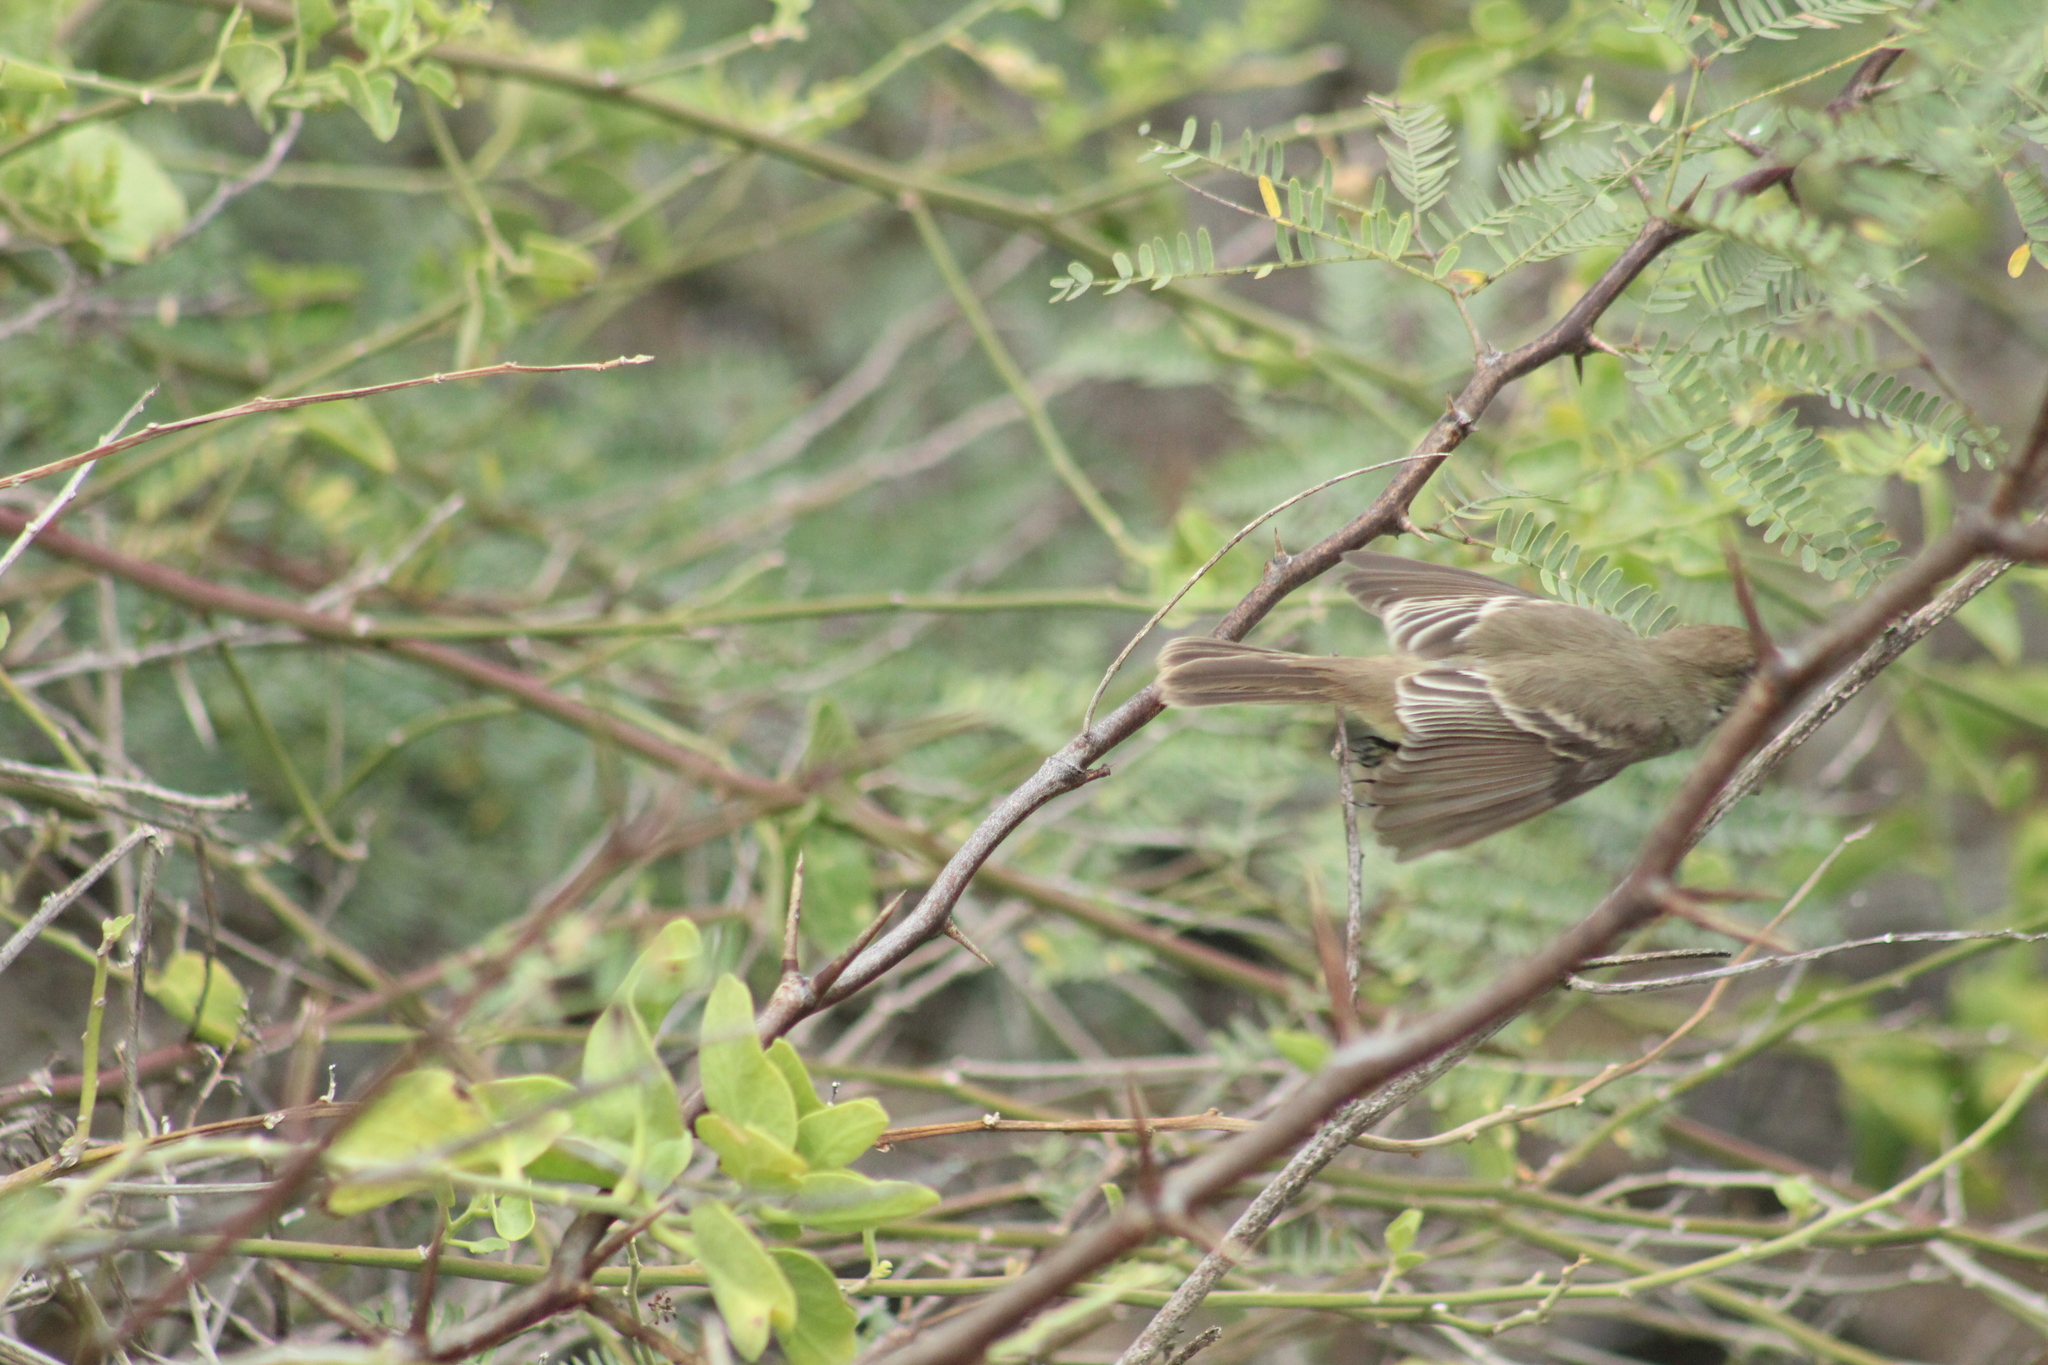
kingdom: Animalia
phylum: Chordata
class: Aves
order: Passeriformes
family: Tyrannidae
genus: Myiarchus
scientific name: Myiarchus magnirostris
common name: Galapagos flycatcher
